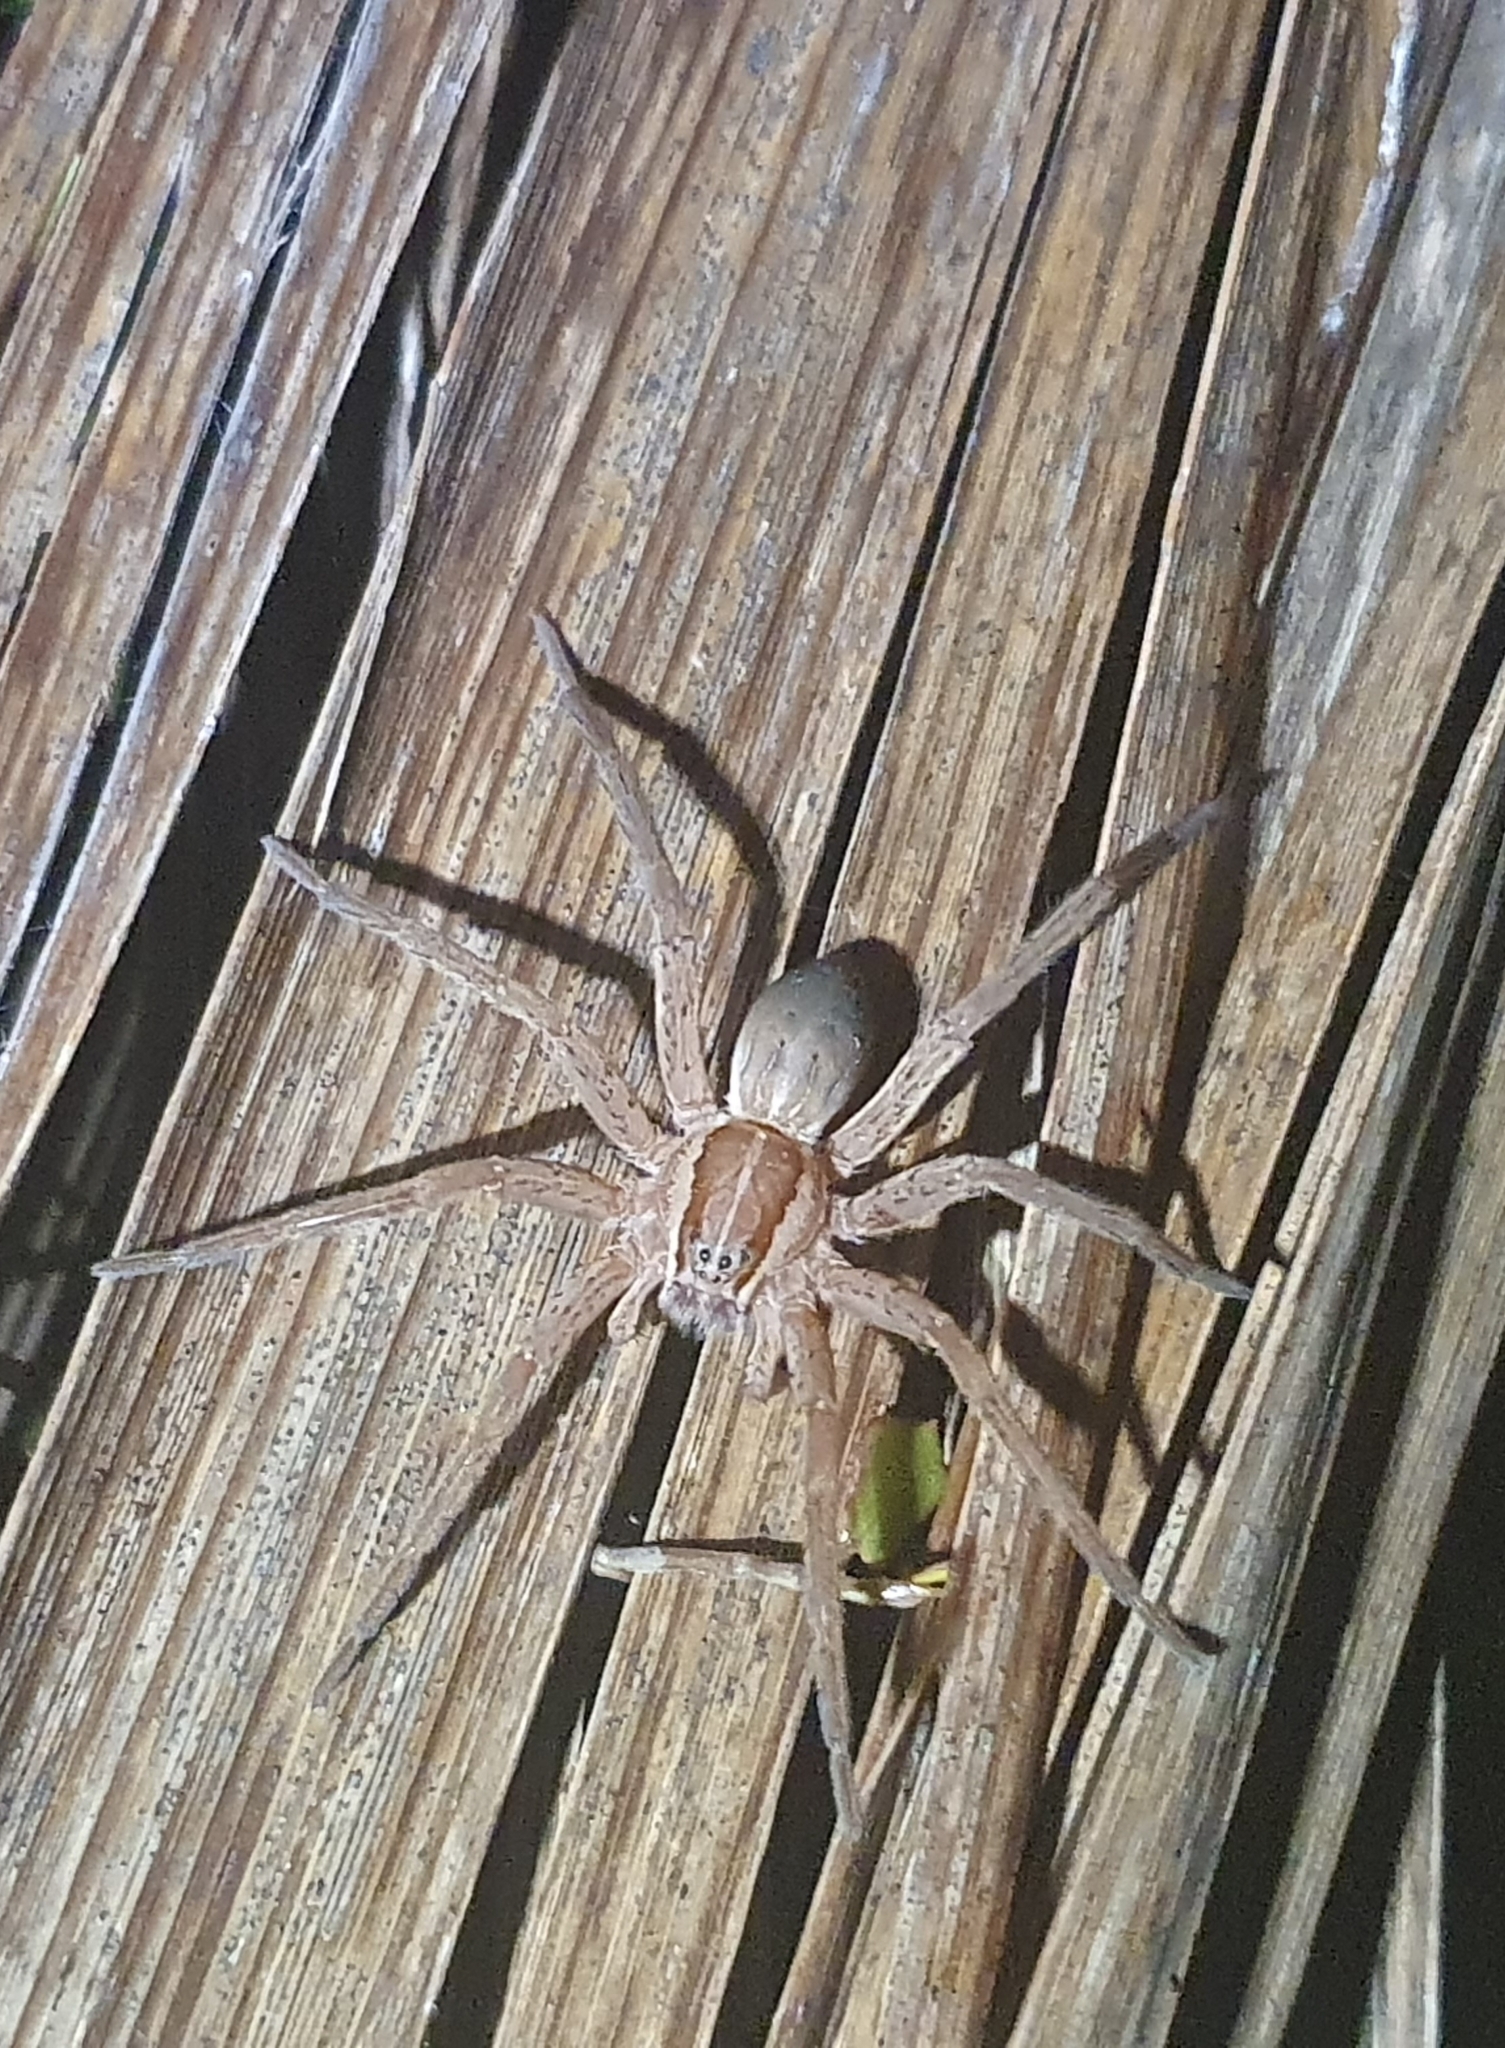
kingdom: Animalia
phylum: Arthropoda
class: Arachnida
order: Araneae
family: Pisauridae
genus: Dolomedes
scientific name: Dolomedes minor
